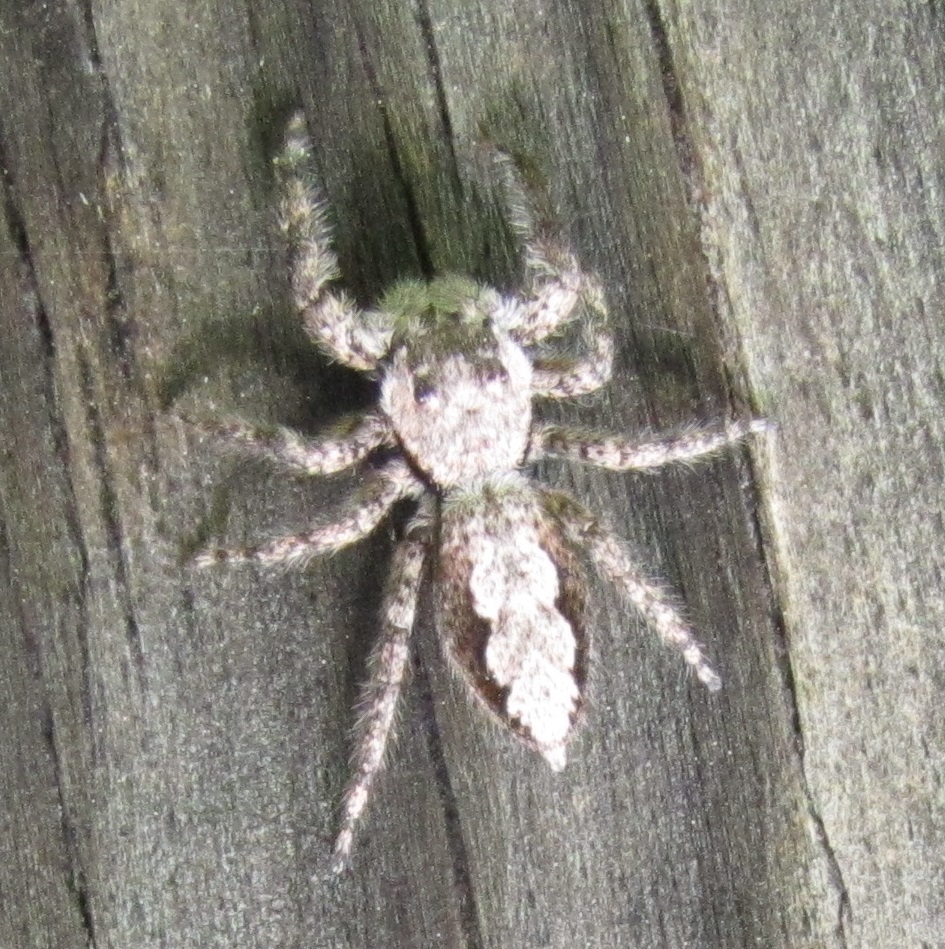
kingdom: Animalia
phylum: Arthropoda
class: Arachnida
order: Araneae
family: Salticidae
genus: Platycryptus
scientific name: Platycryptus undatus
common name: Tan jumping spider
